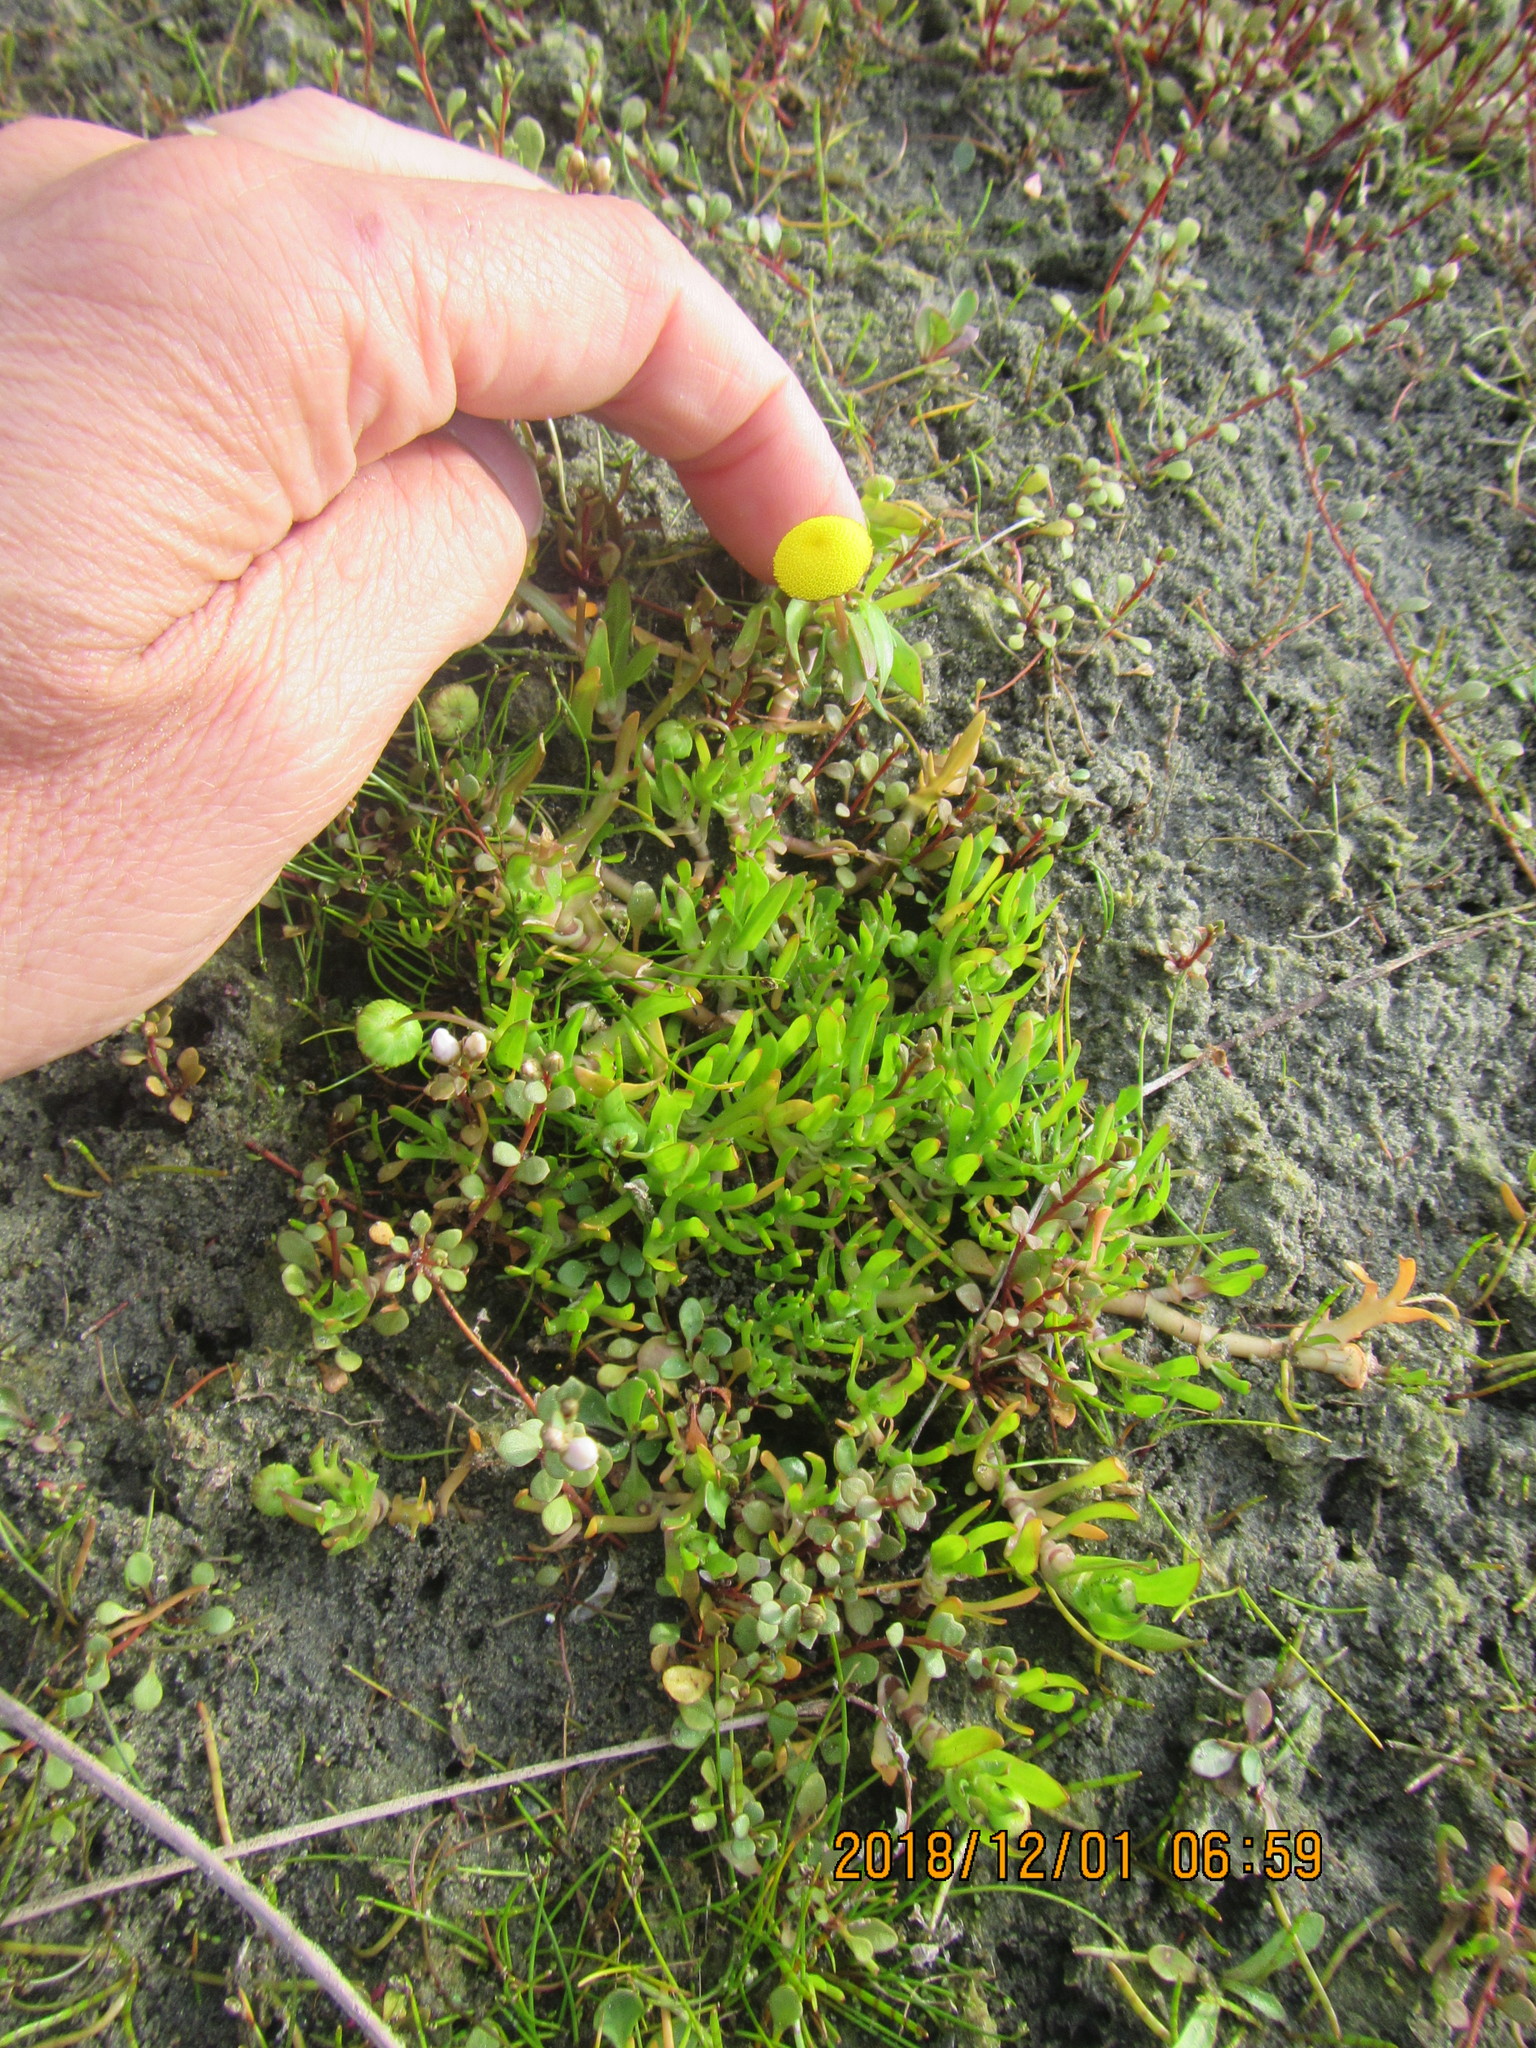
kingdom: Plantae
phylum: Tracheophyta
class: Magnoliopsida
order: Asterales
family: Asteraceae
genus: Cotula
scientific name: Cotula coronopifolia
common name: Buttonweed
